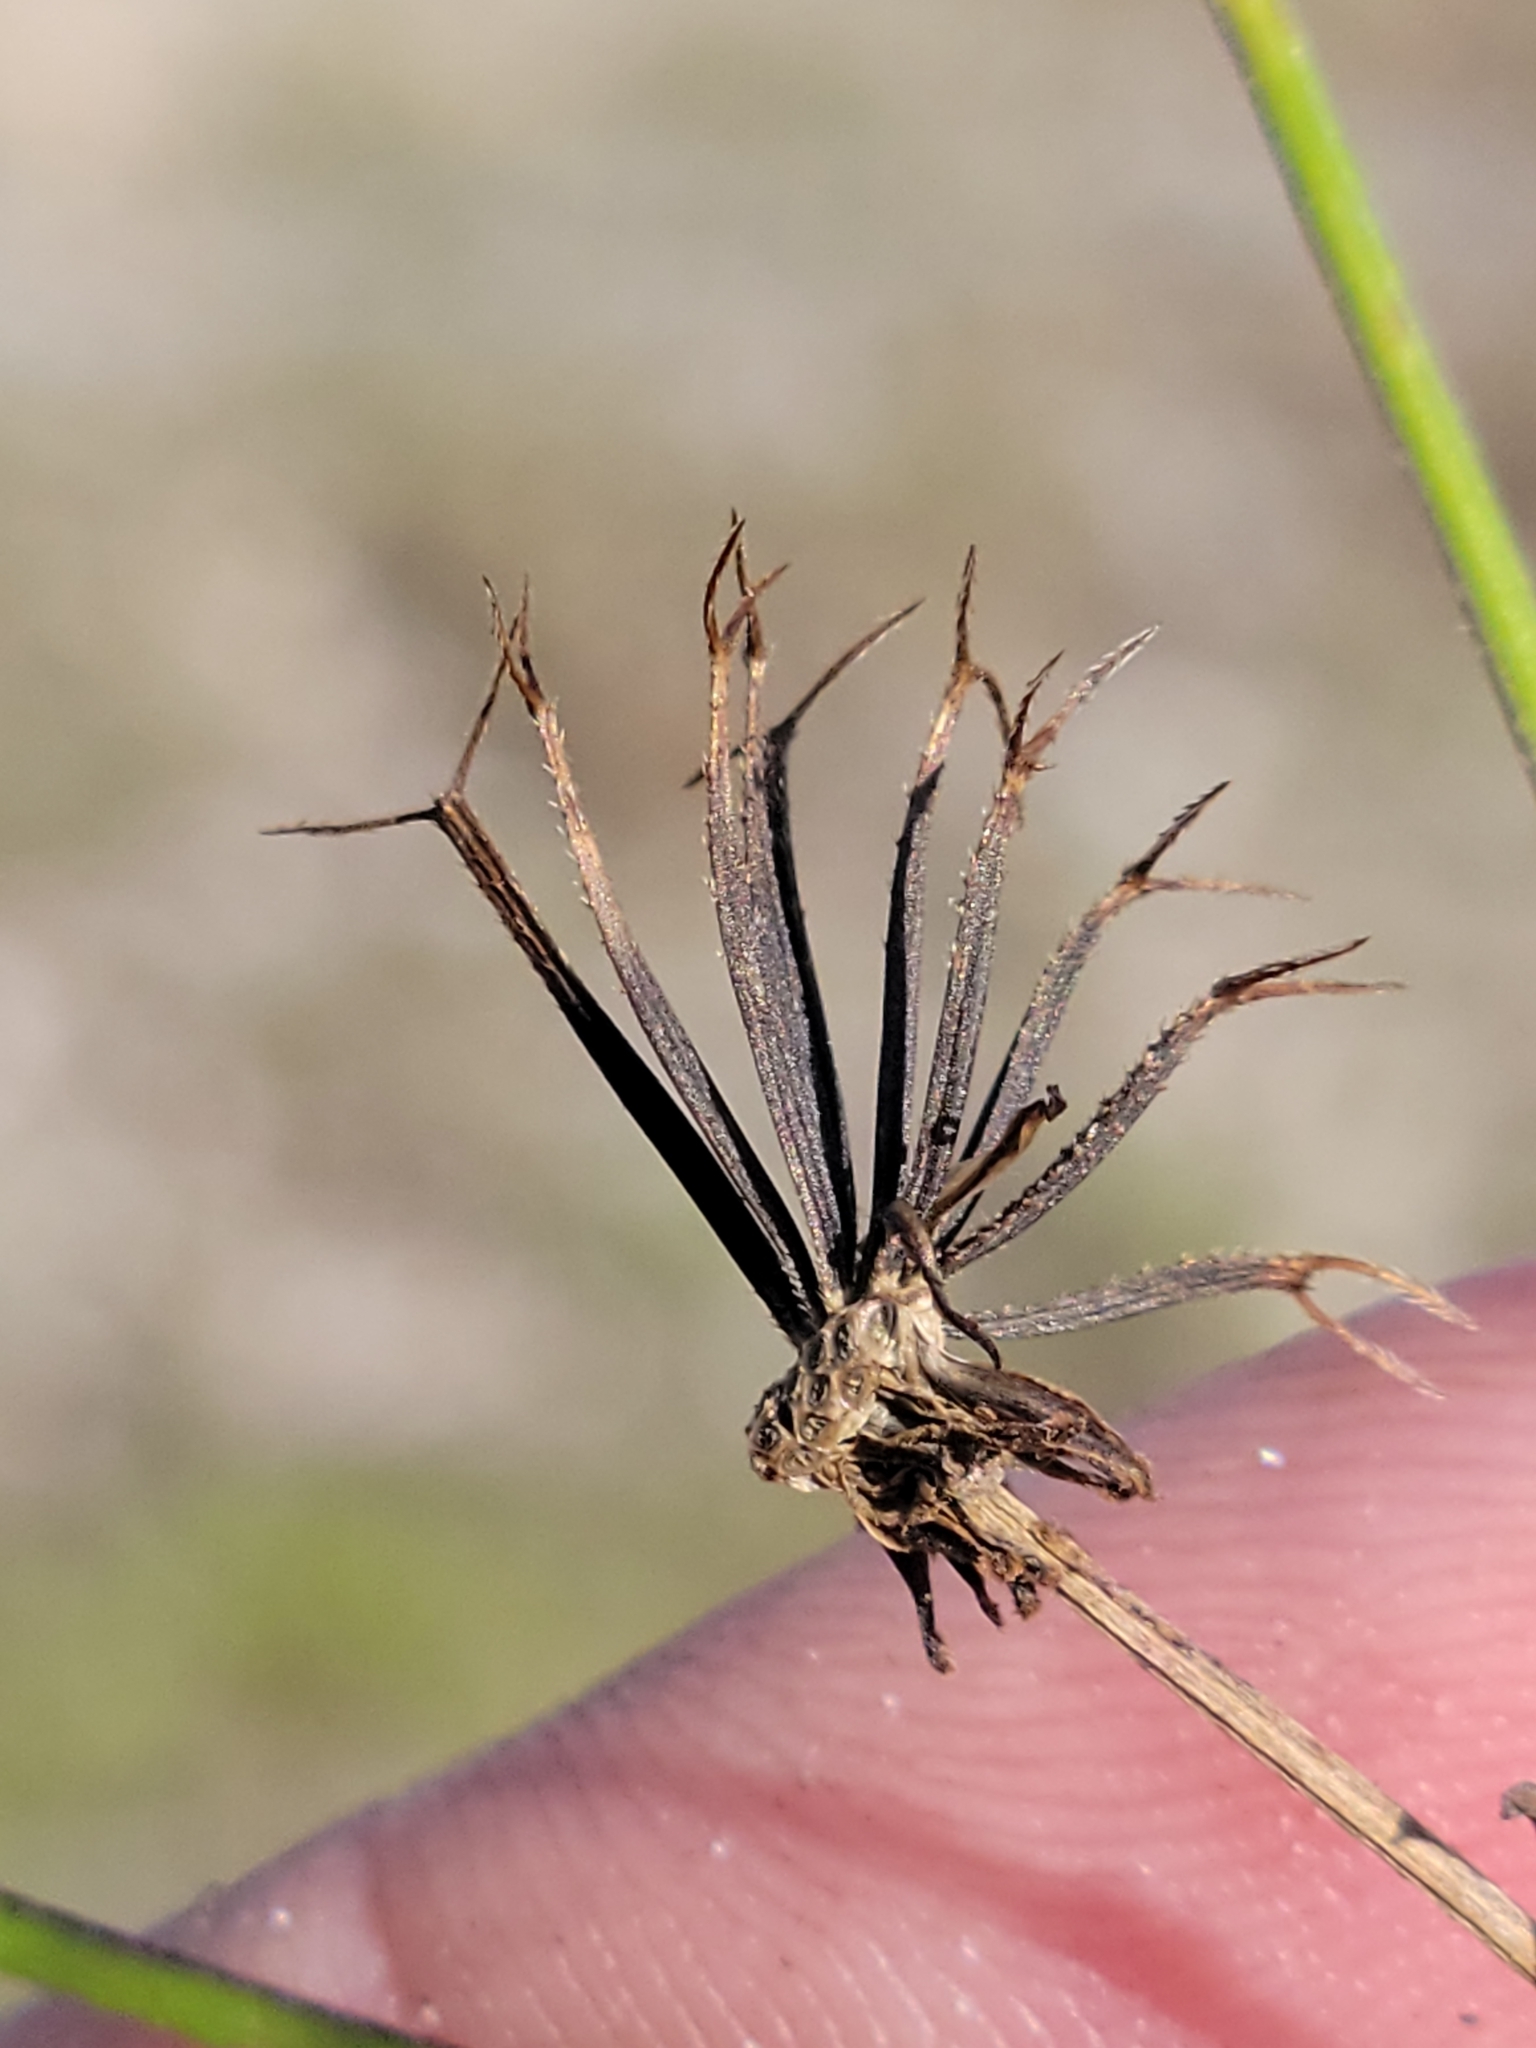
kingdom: Plantae
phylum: Tracheophyta
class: Magnoliopsida
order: Asterales
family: Asteraceae
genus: Bidens
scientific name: Bidens alba
